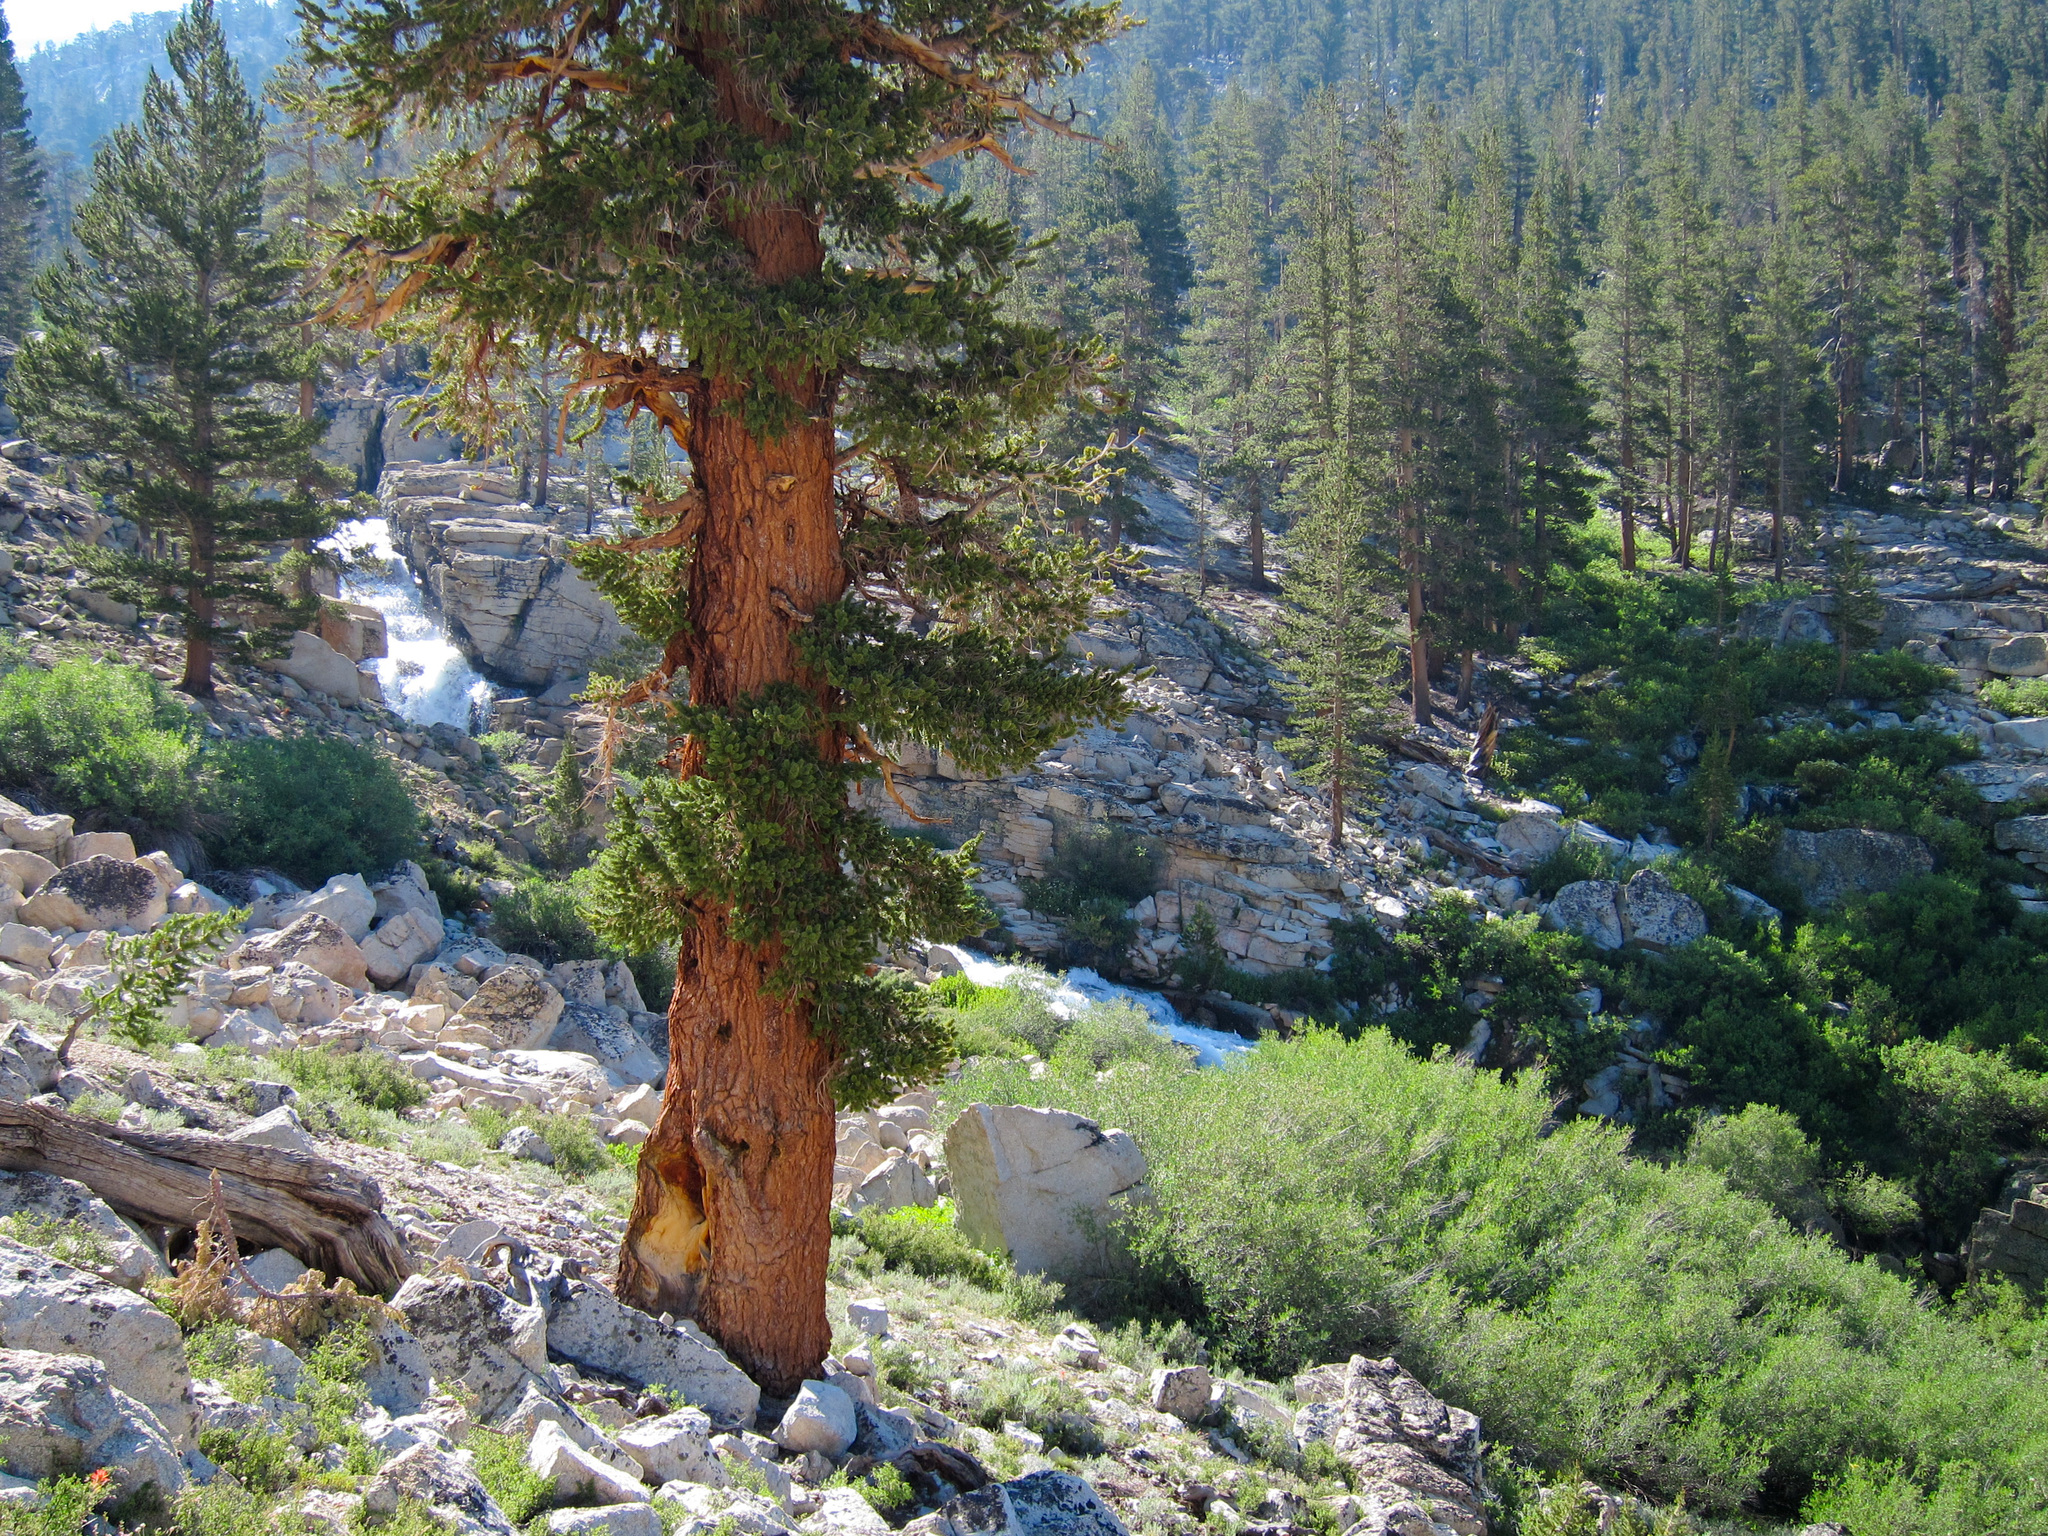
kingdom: Plantae
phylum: Tracheophyta
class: Pinopsida
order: Pinales
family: Pinaceae
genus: Pinus
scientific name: Pinus balfouriana
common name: Foxtail pine
